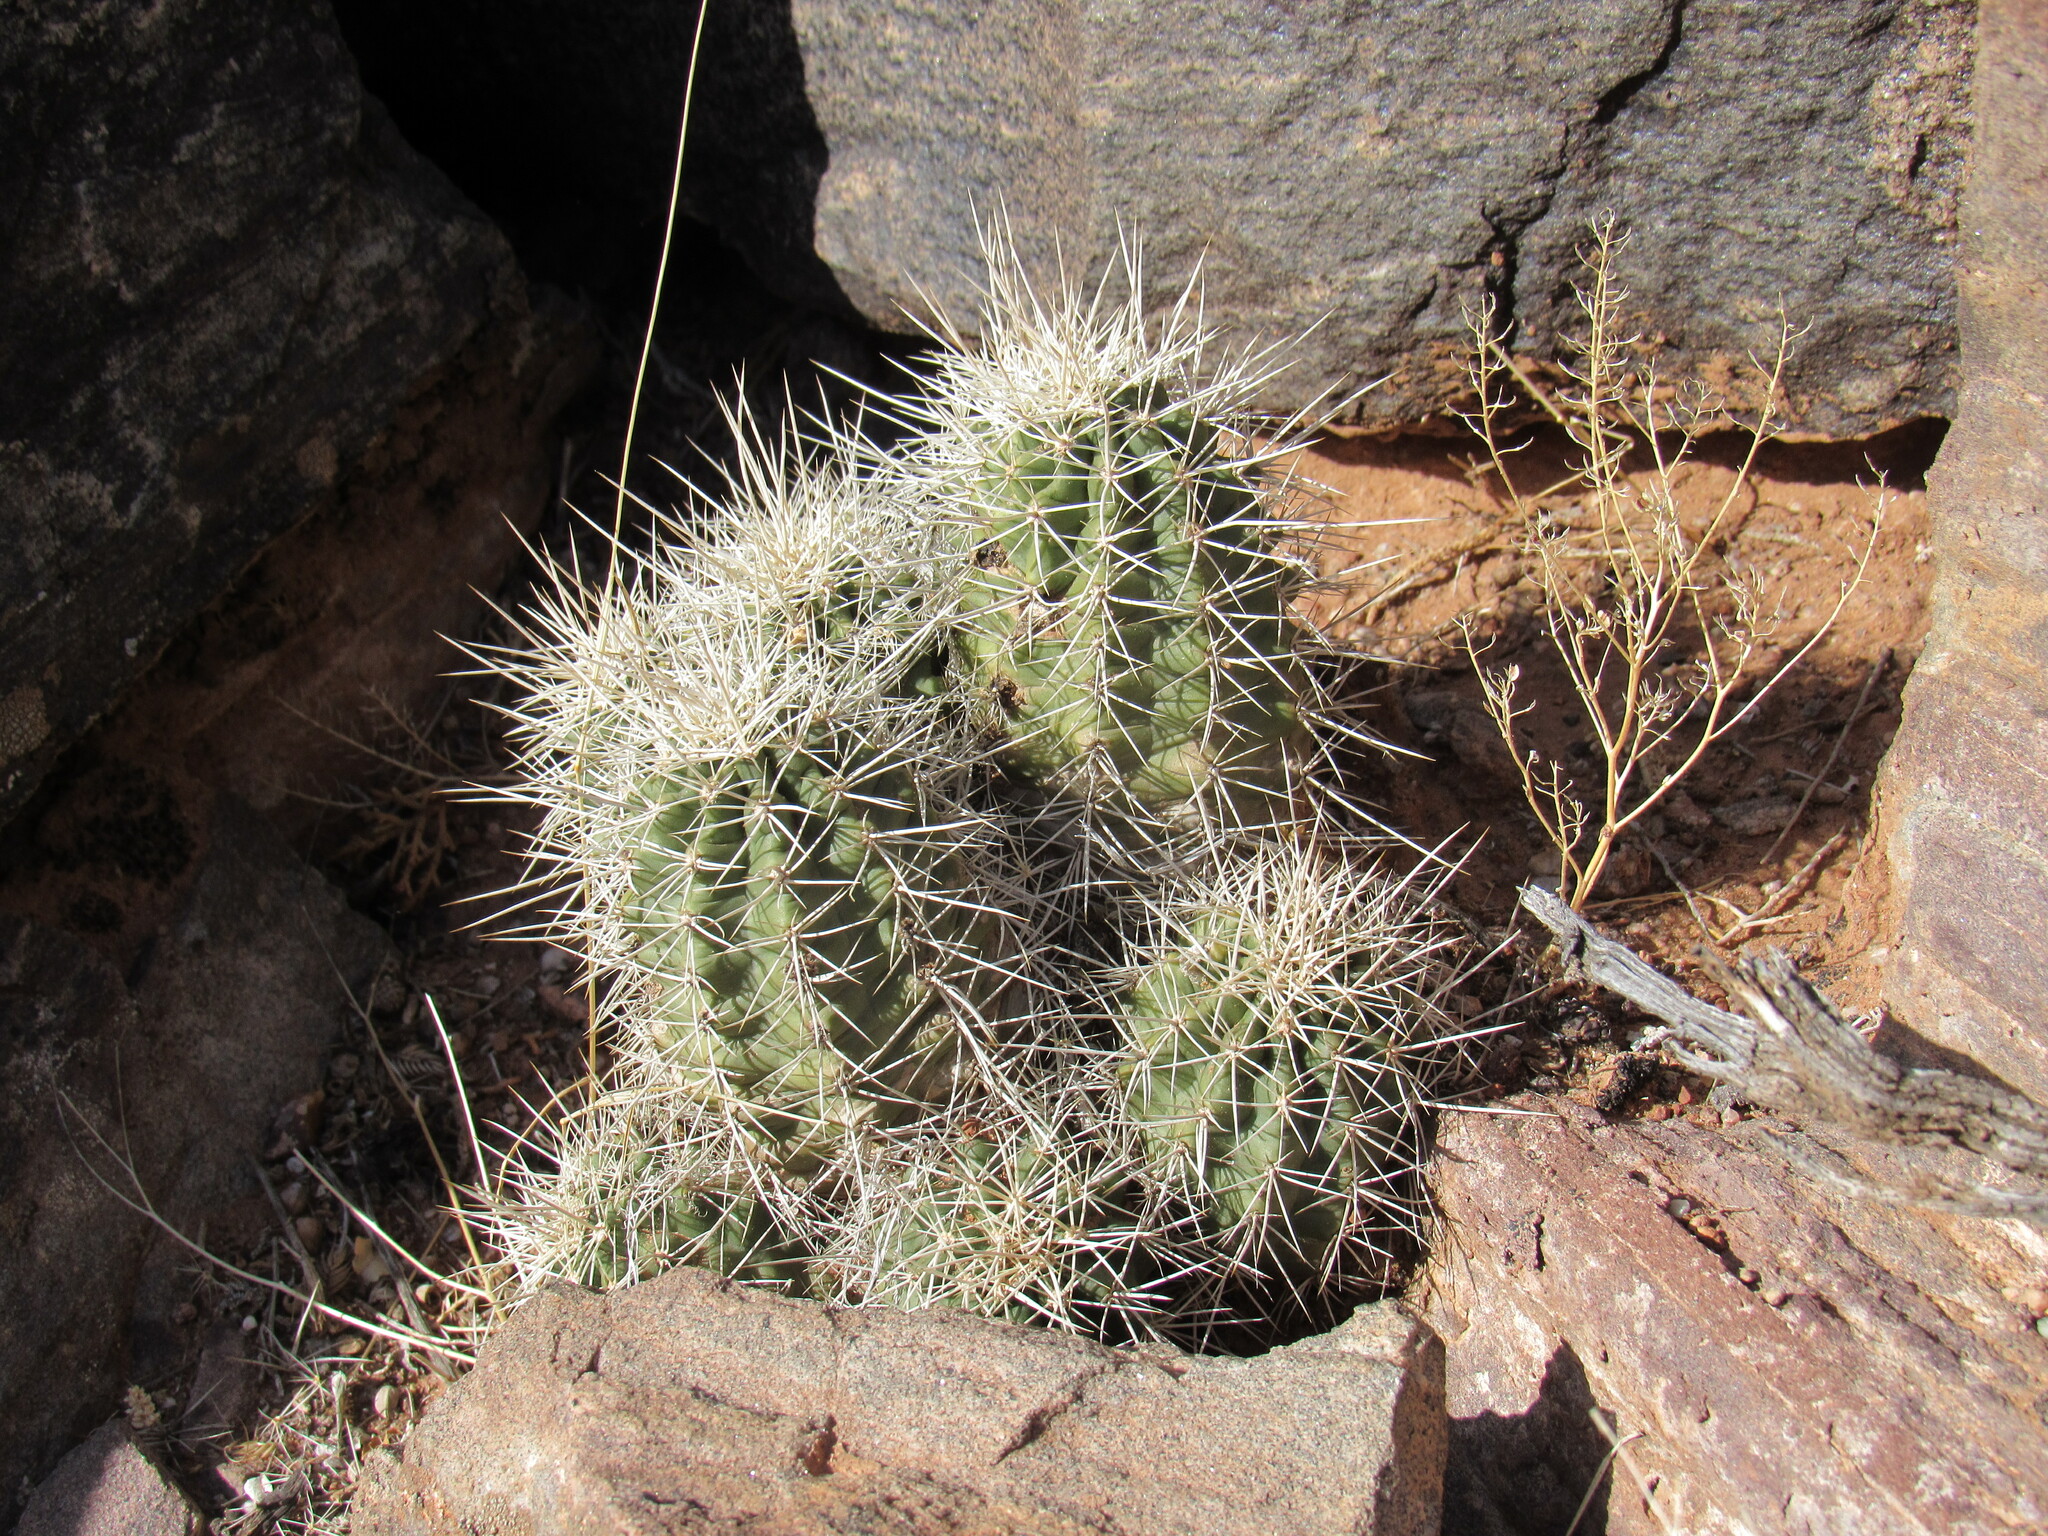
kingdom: Plantae
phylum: Tracheophyta
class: Magnoliopsida
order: Caryophyllales
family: Cactaceae
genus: Echinocereus
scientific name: Echinocereus triglochidiatus
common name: Claretcup hedgehog
